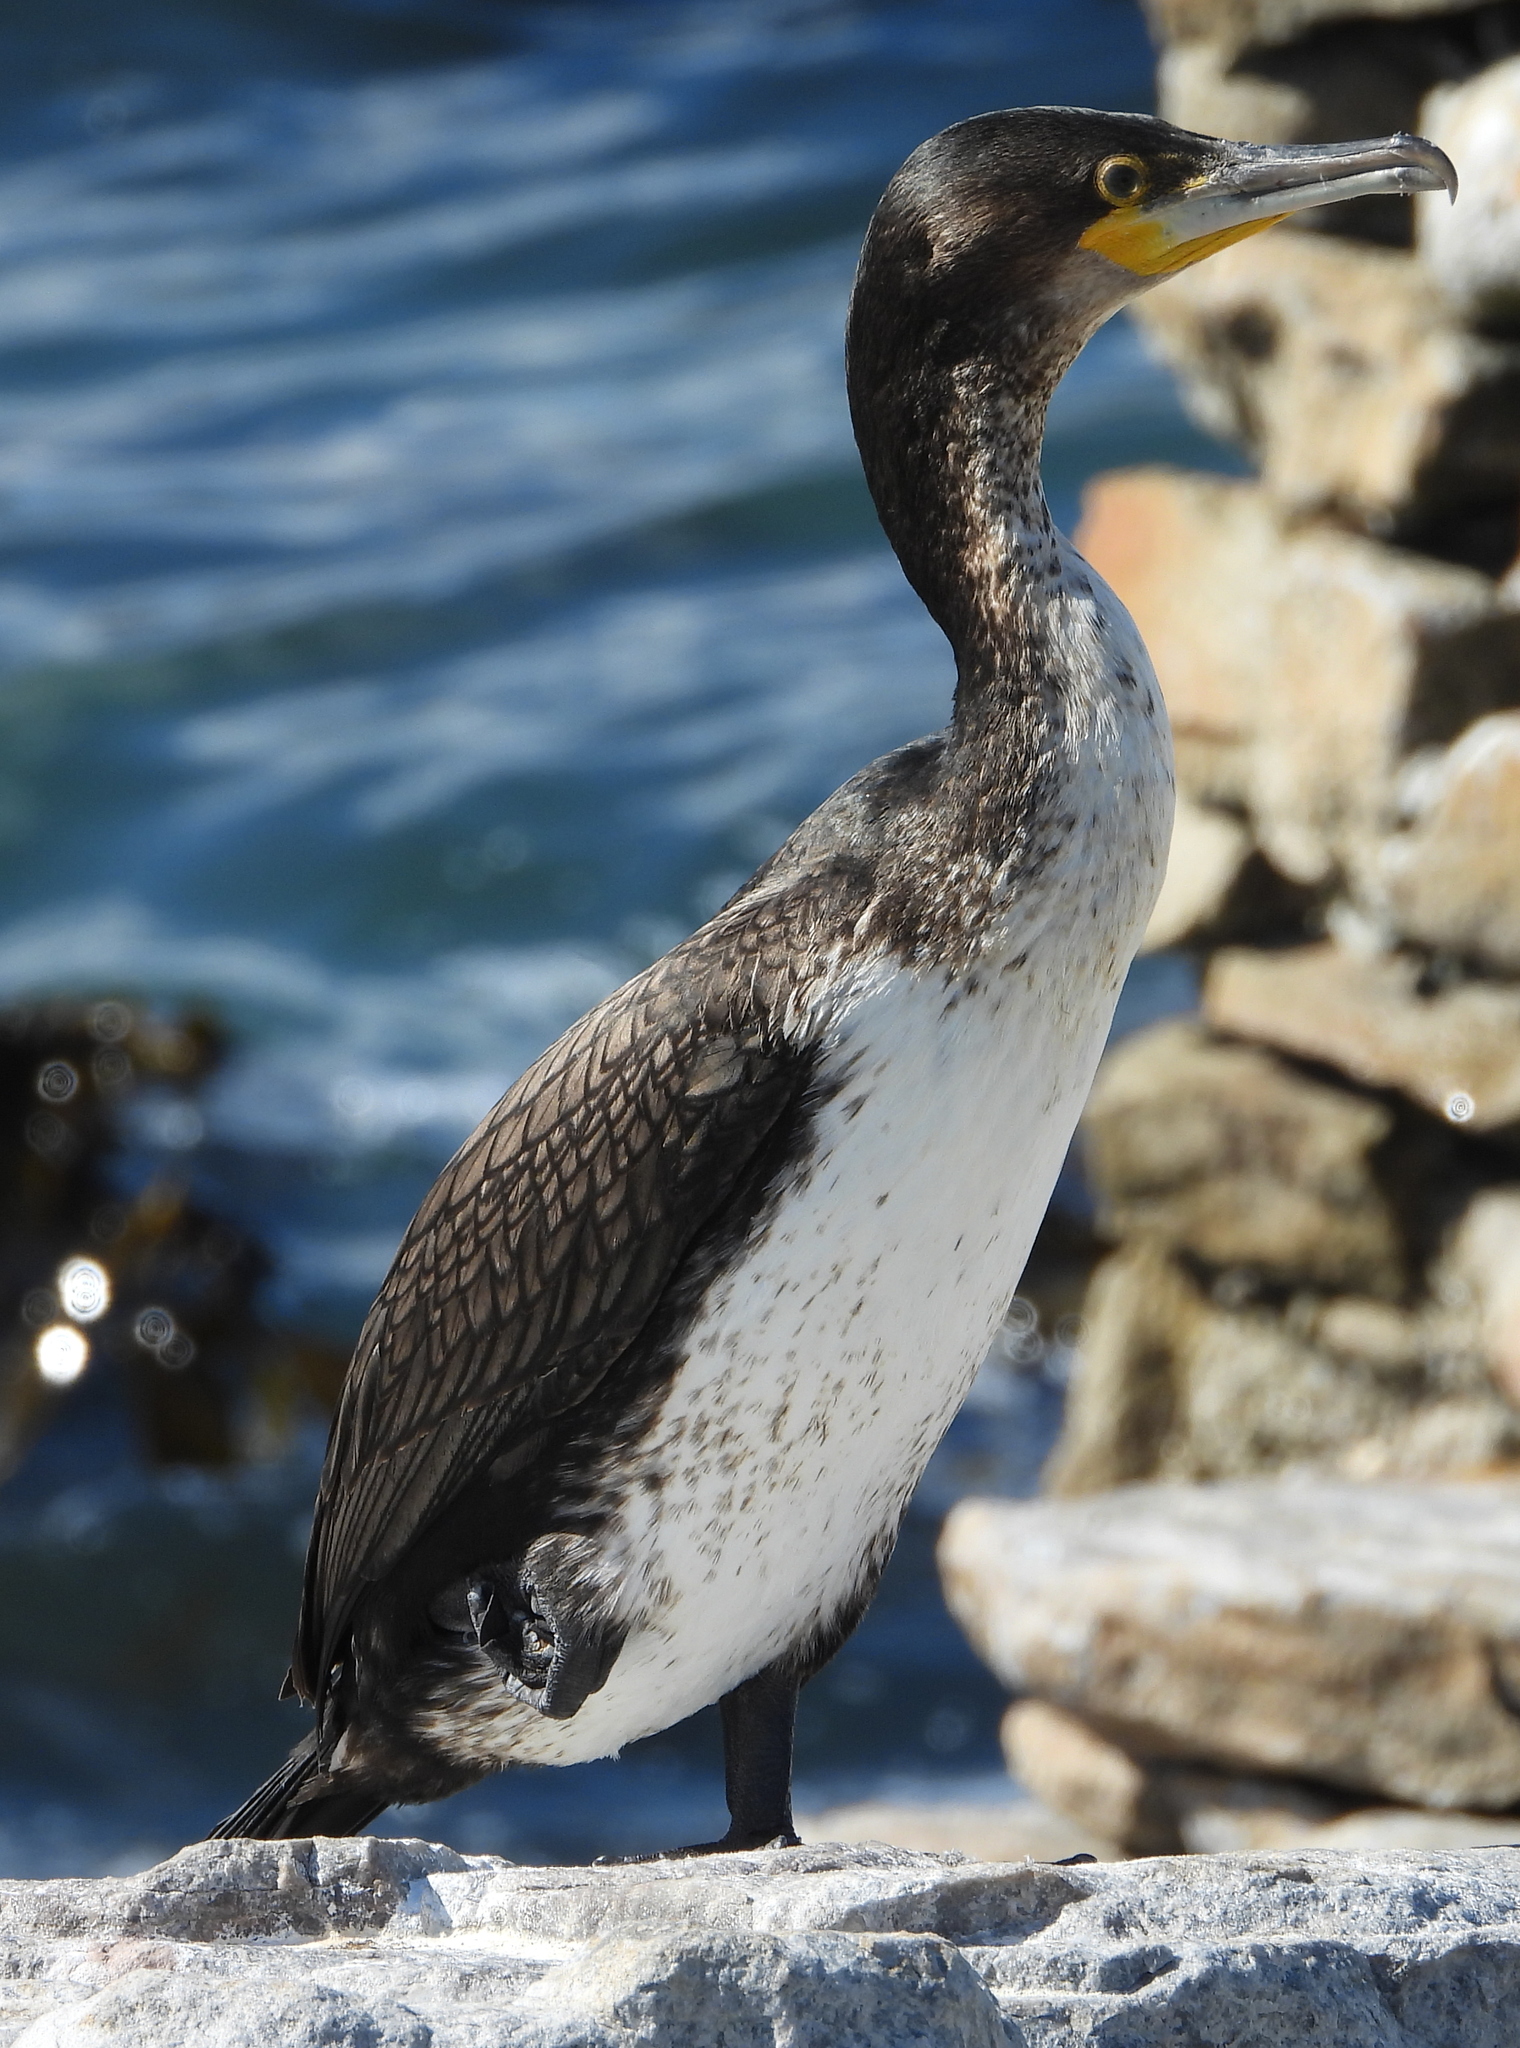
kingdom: Animalia
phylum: Chordata
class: Aves
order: Suliformes
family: Phalacrocoracidae
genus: Phalacrocorax
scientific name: Phalacrocorax carbo
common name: Great cormorant
